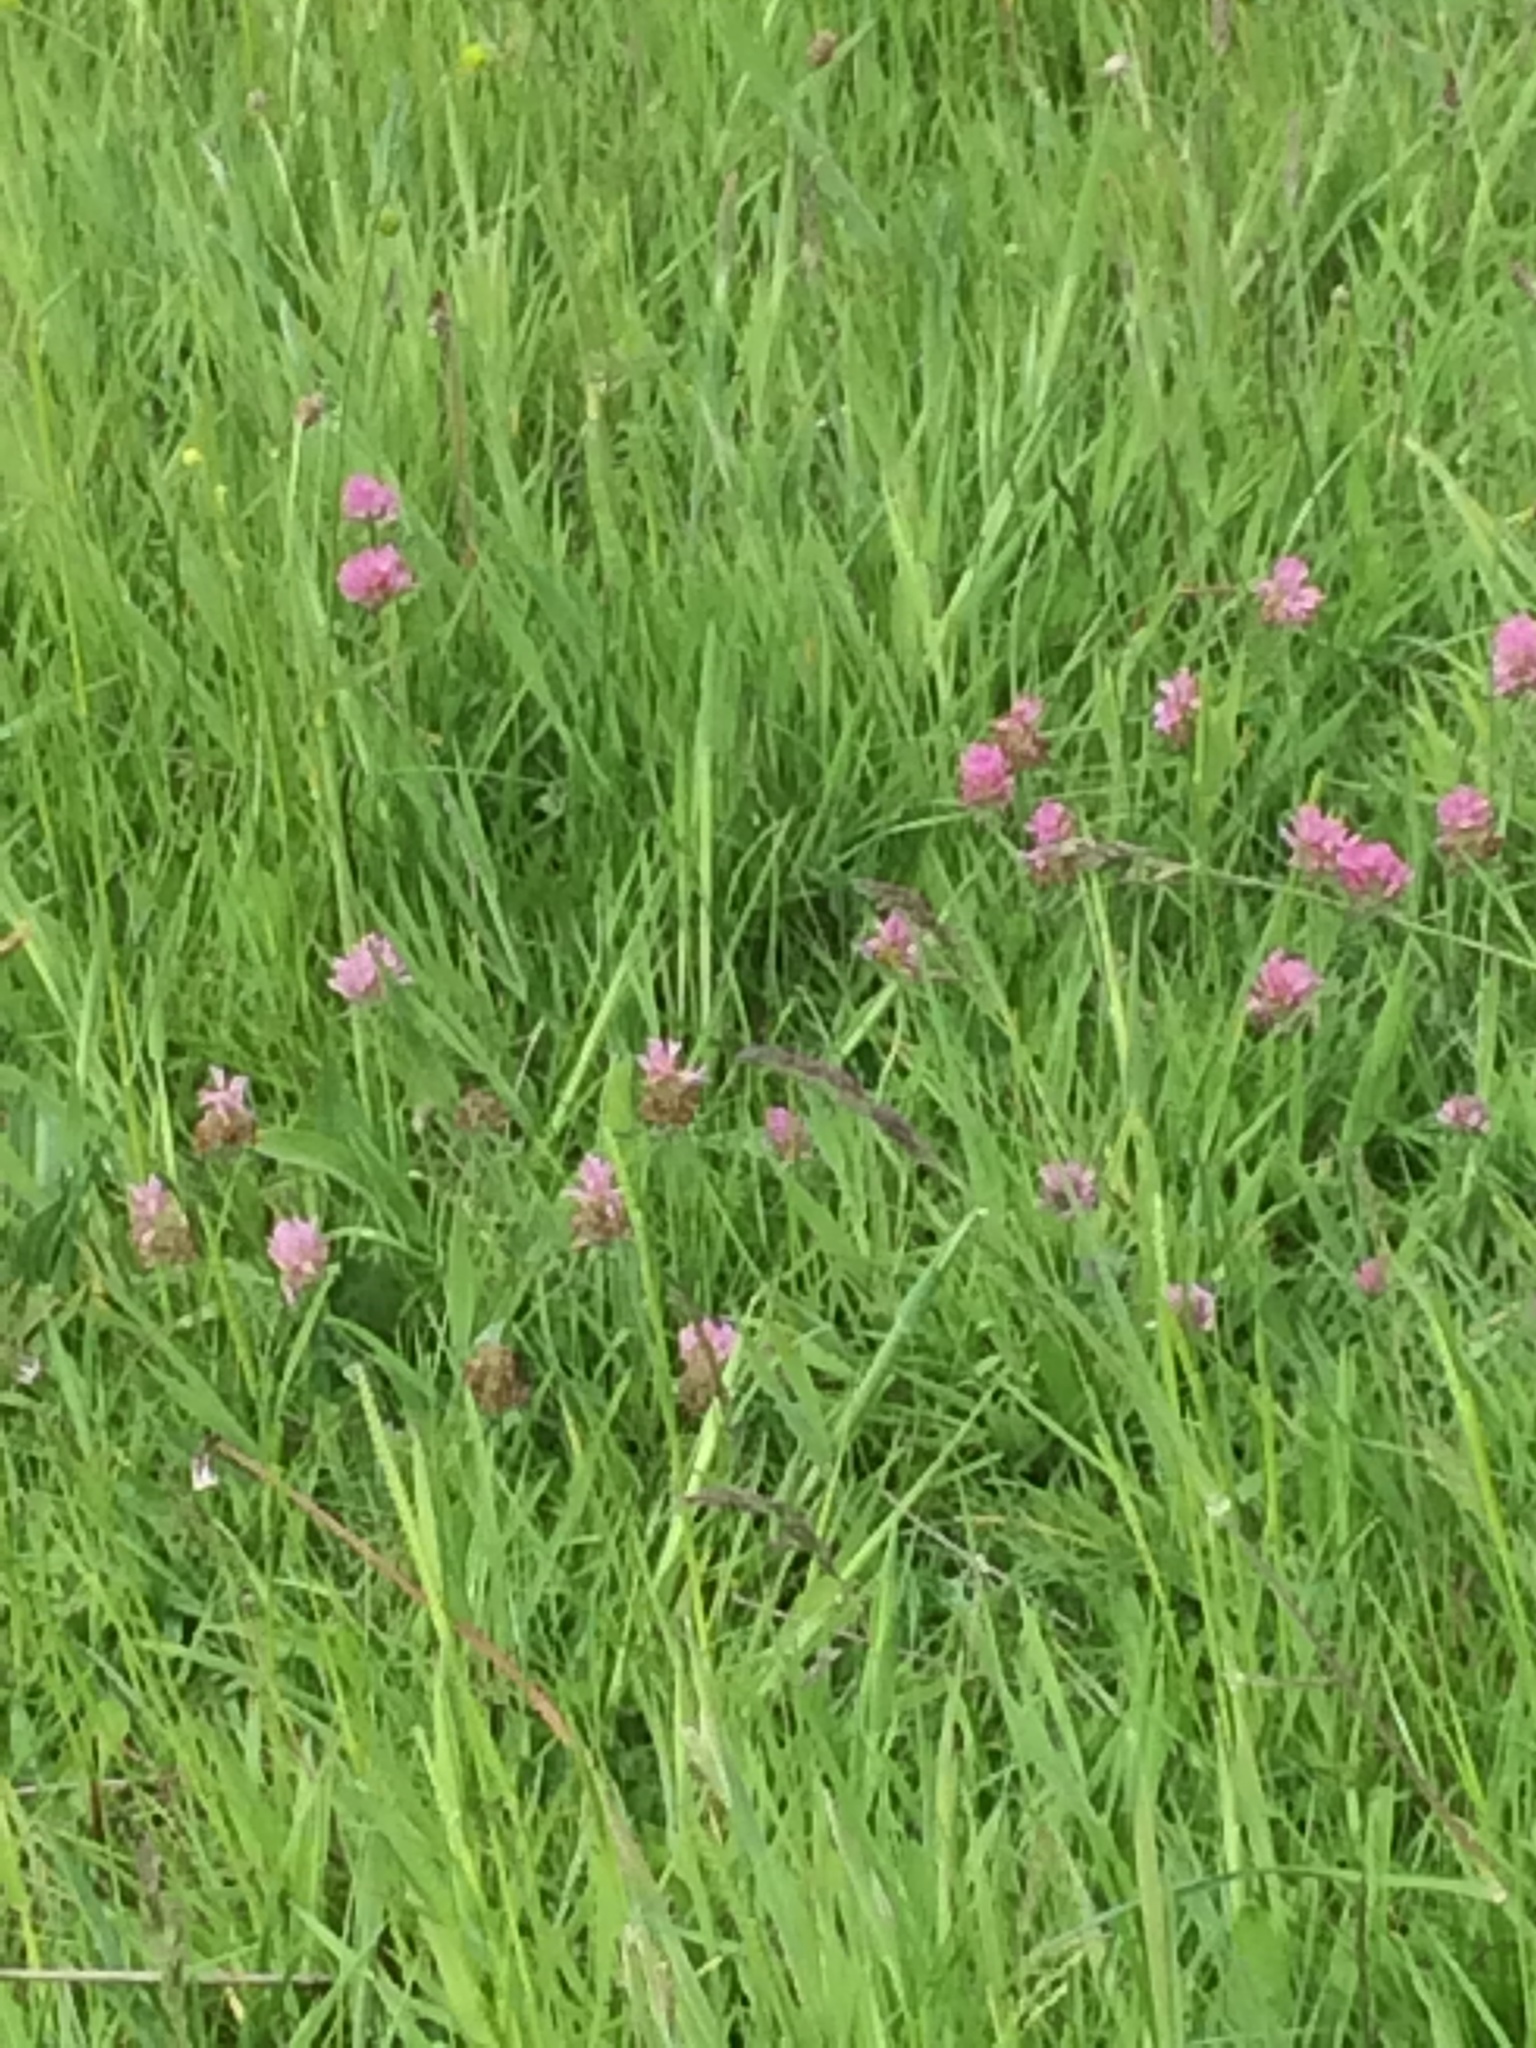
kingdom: Plantae
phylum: Tracheophyta
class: Magnoliopsida
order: Fabales
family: Fabaceae
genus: Trifolium
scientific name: Trifolium pratense
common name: Red clover
